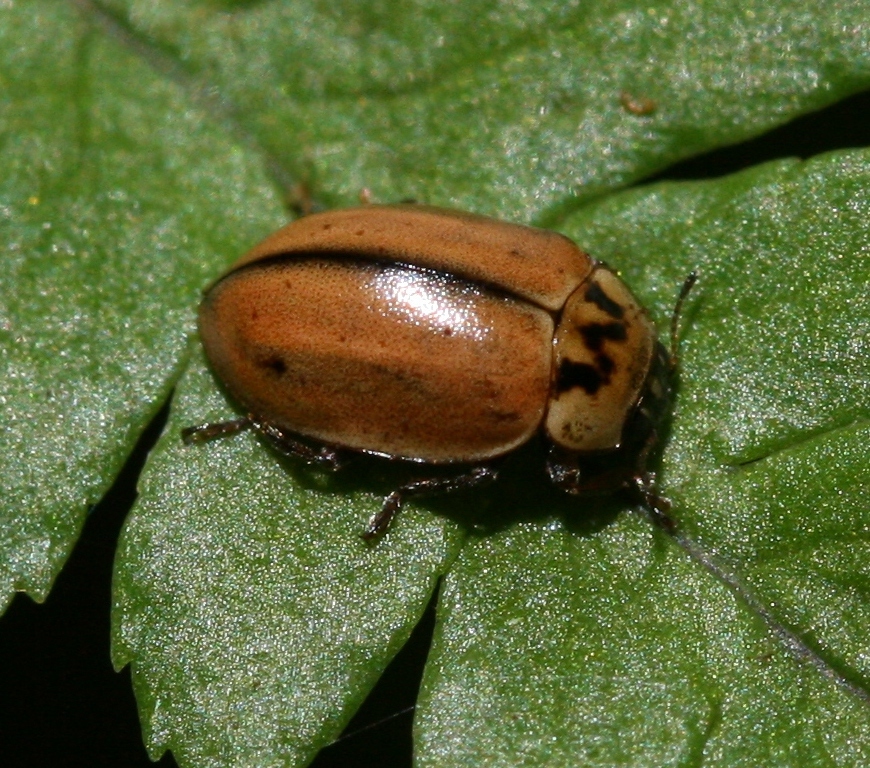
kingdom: Animalia
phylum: Arthropoda
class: Insecta
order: Coleoptera
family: Coccinellidae
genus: Aphidecta
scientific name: Aphidecta obliterata
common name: Larch ladybird
